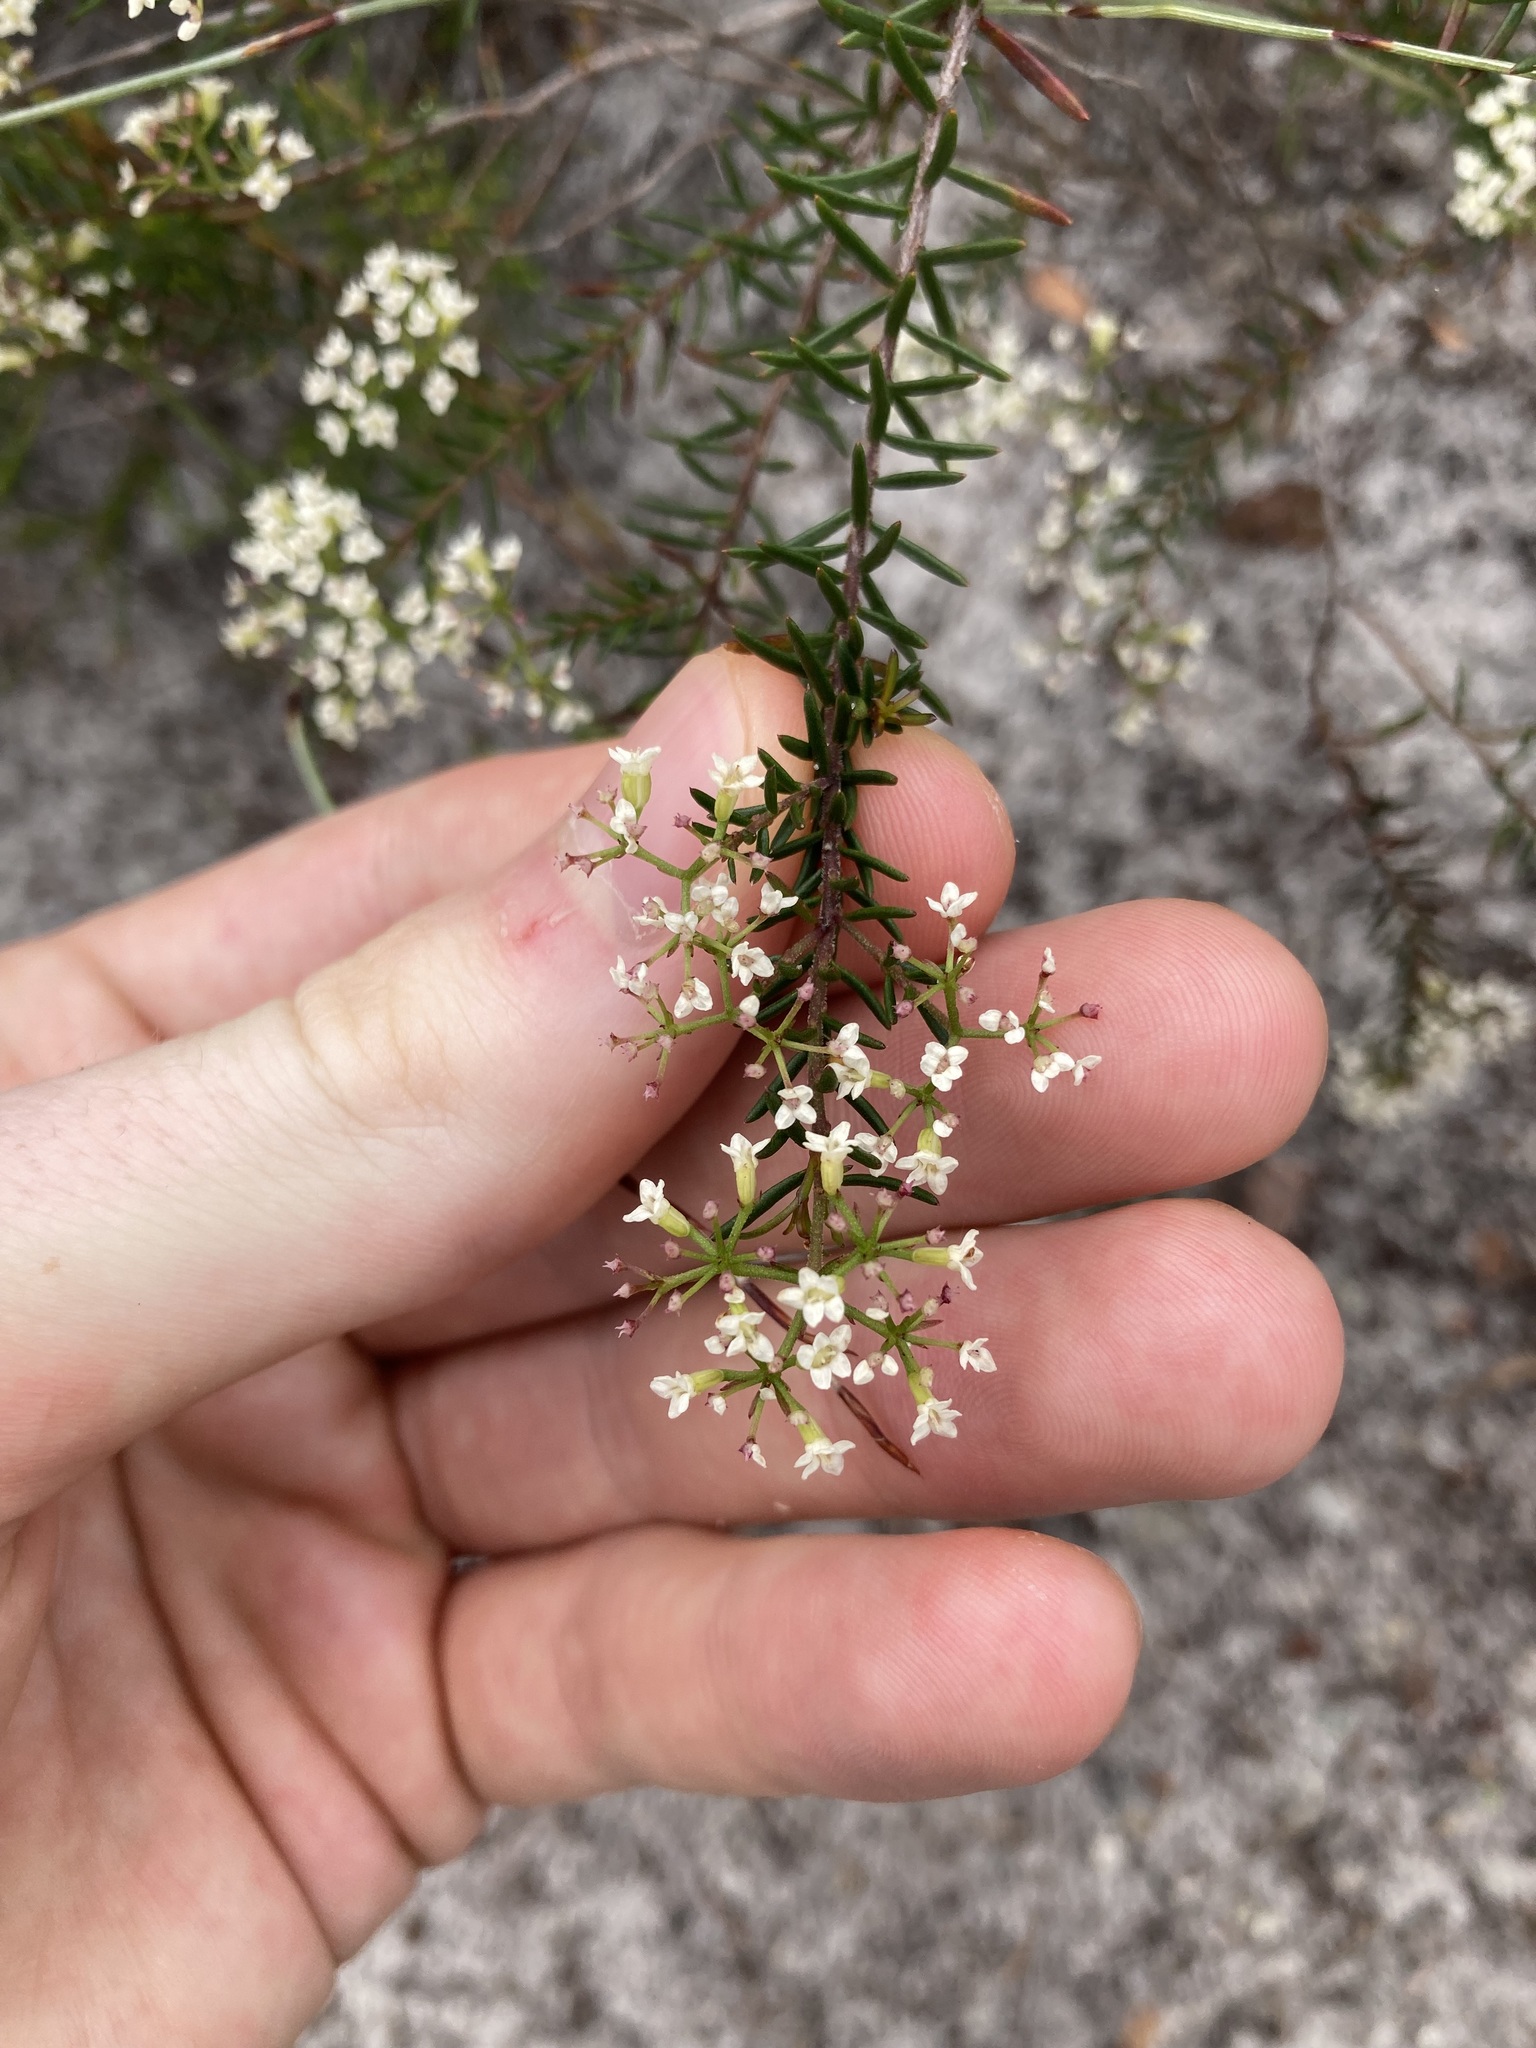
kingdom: Plantae
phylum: Tracheophyta
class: Magnoliopsida
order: Apiales
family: Apiaceae
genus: Platysace
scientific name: Platysace ericoides
